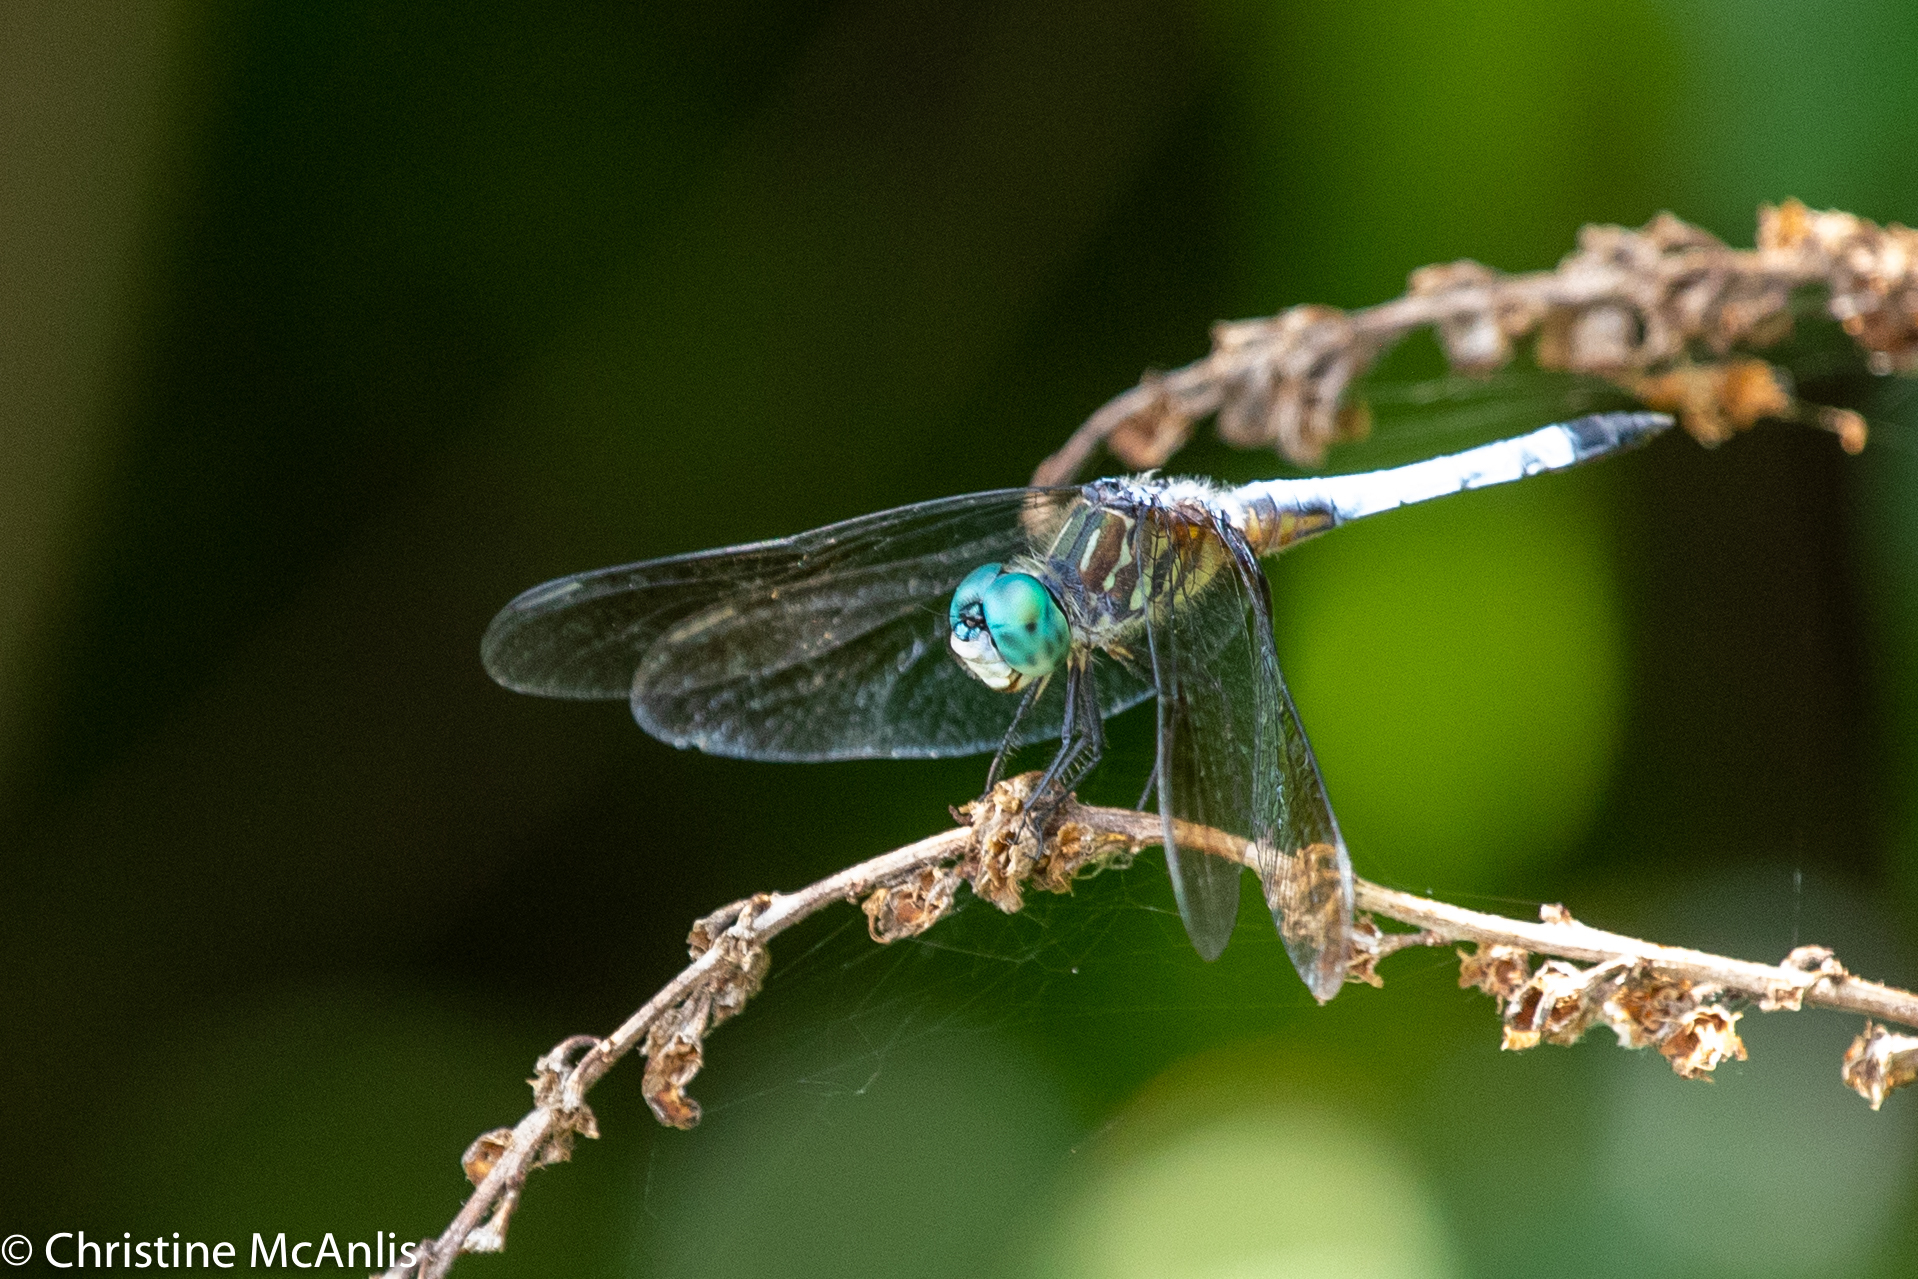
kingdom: Animalia
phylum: Arthropoda
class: Insecta
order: Odonata
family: Libellulidae
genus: Pachydiplax
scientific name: Pachydiplax longipennis
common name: Blue dasher
